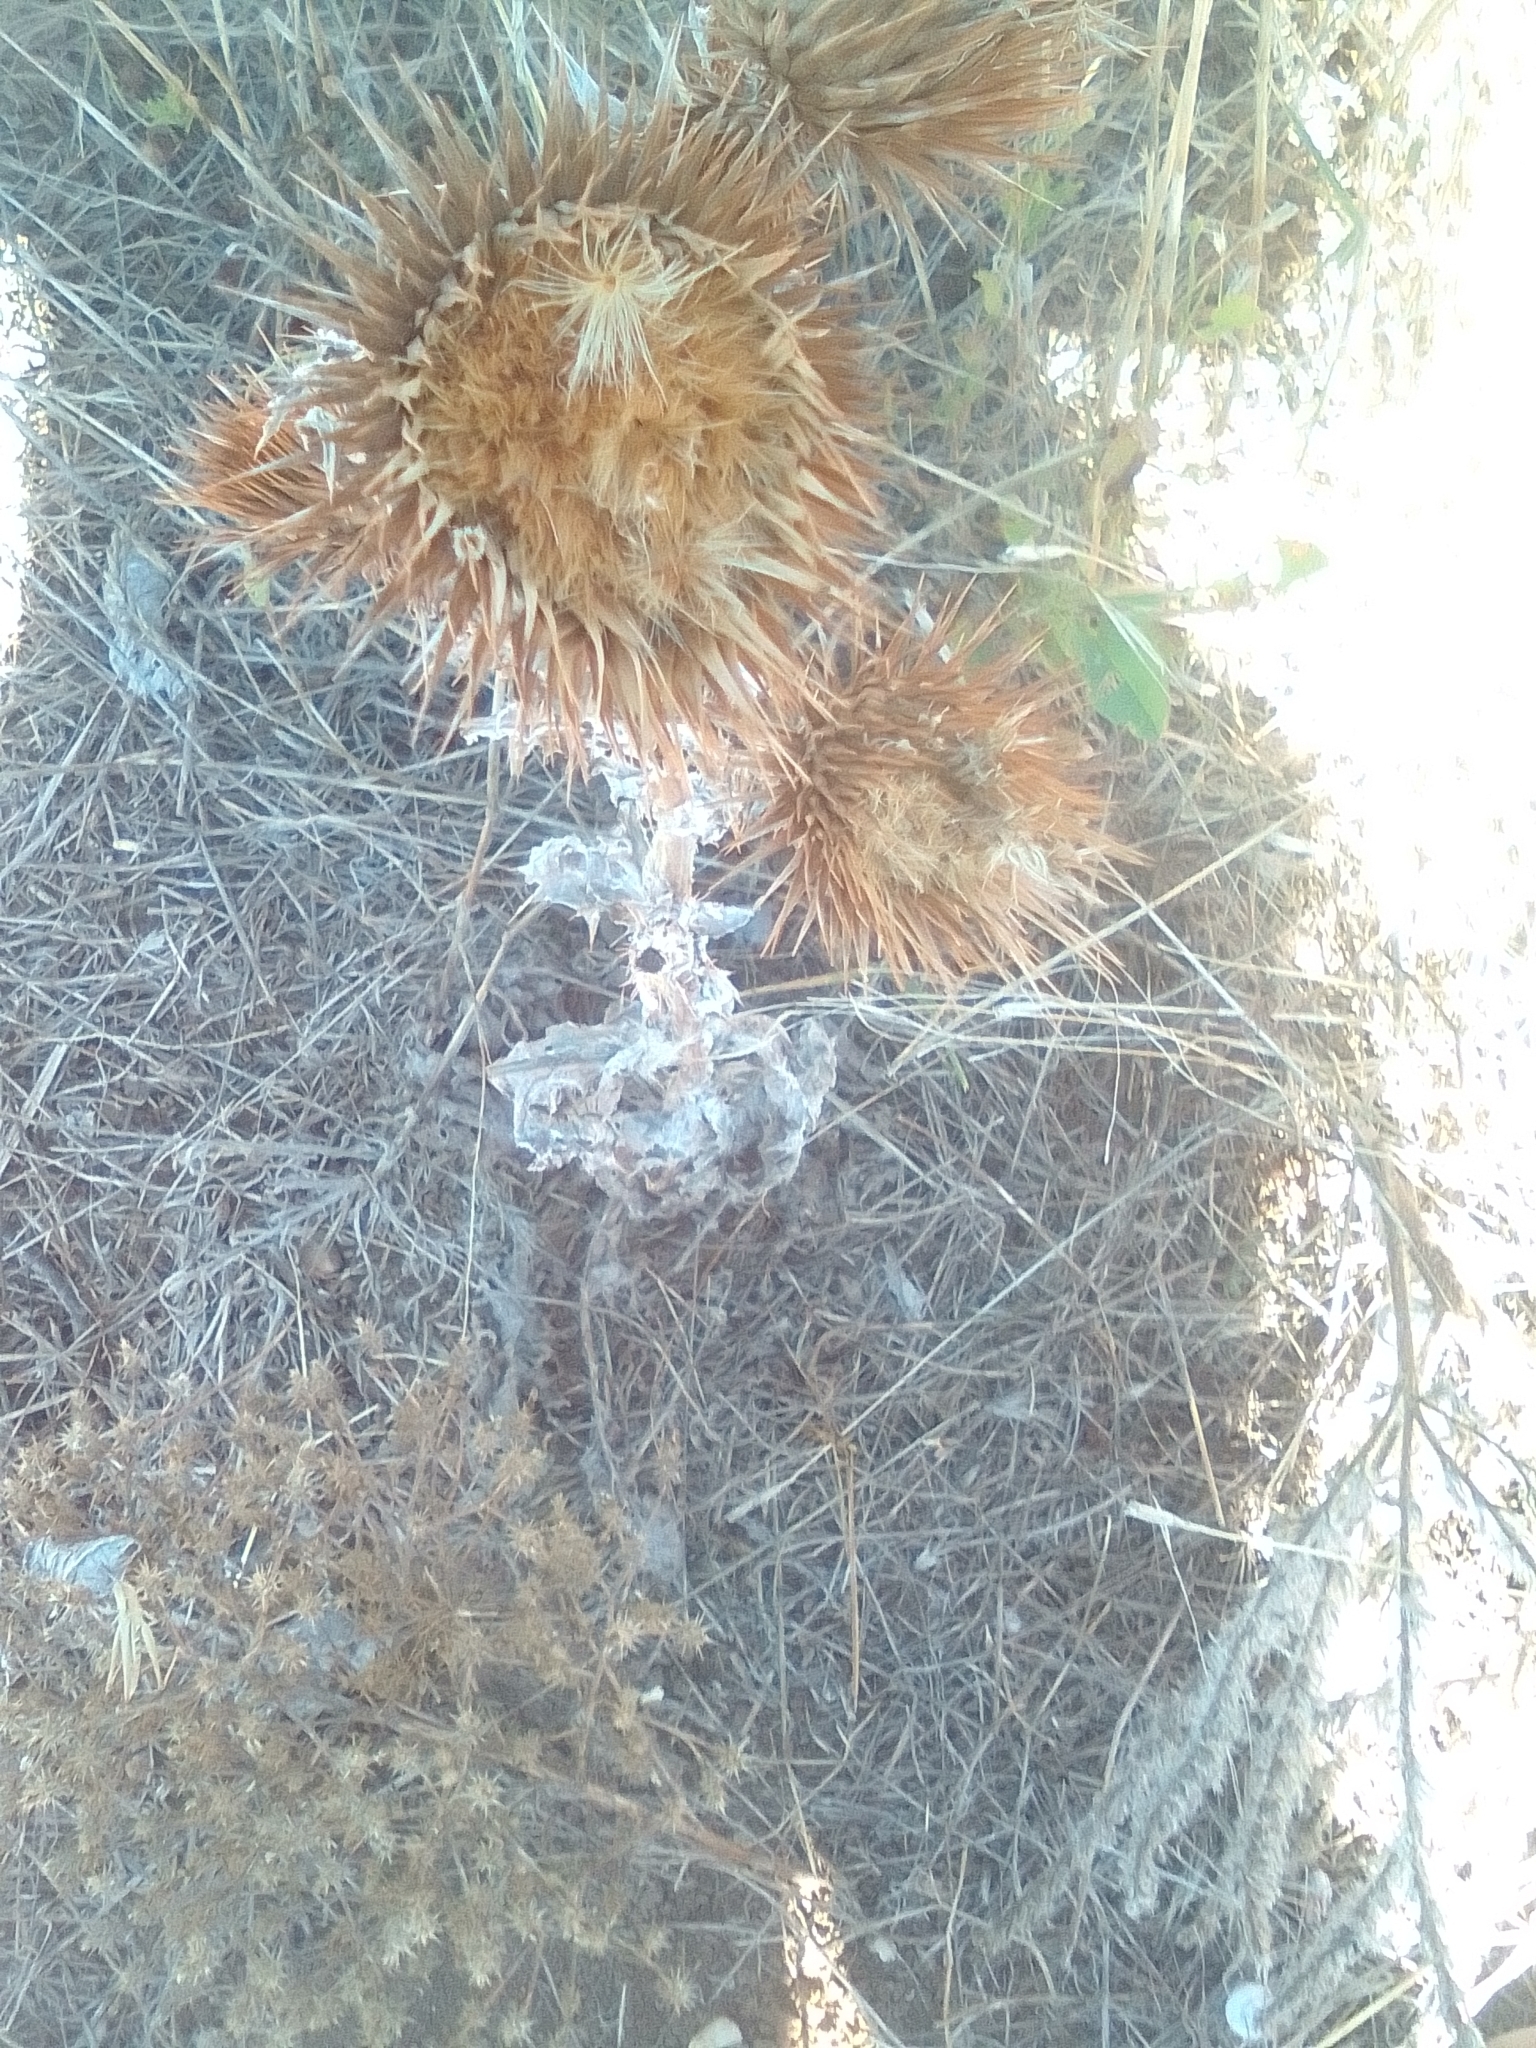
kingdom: Plantae
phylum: Tracheophyta
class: Magnoliopsida
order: Asterales
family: Asteraceae
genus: Onopordum
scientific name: Onopordum acanthium
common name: Scotch thistle
